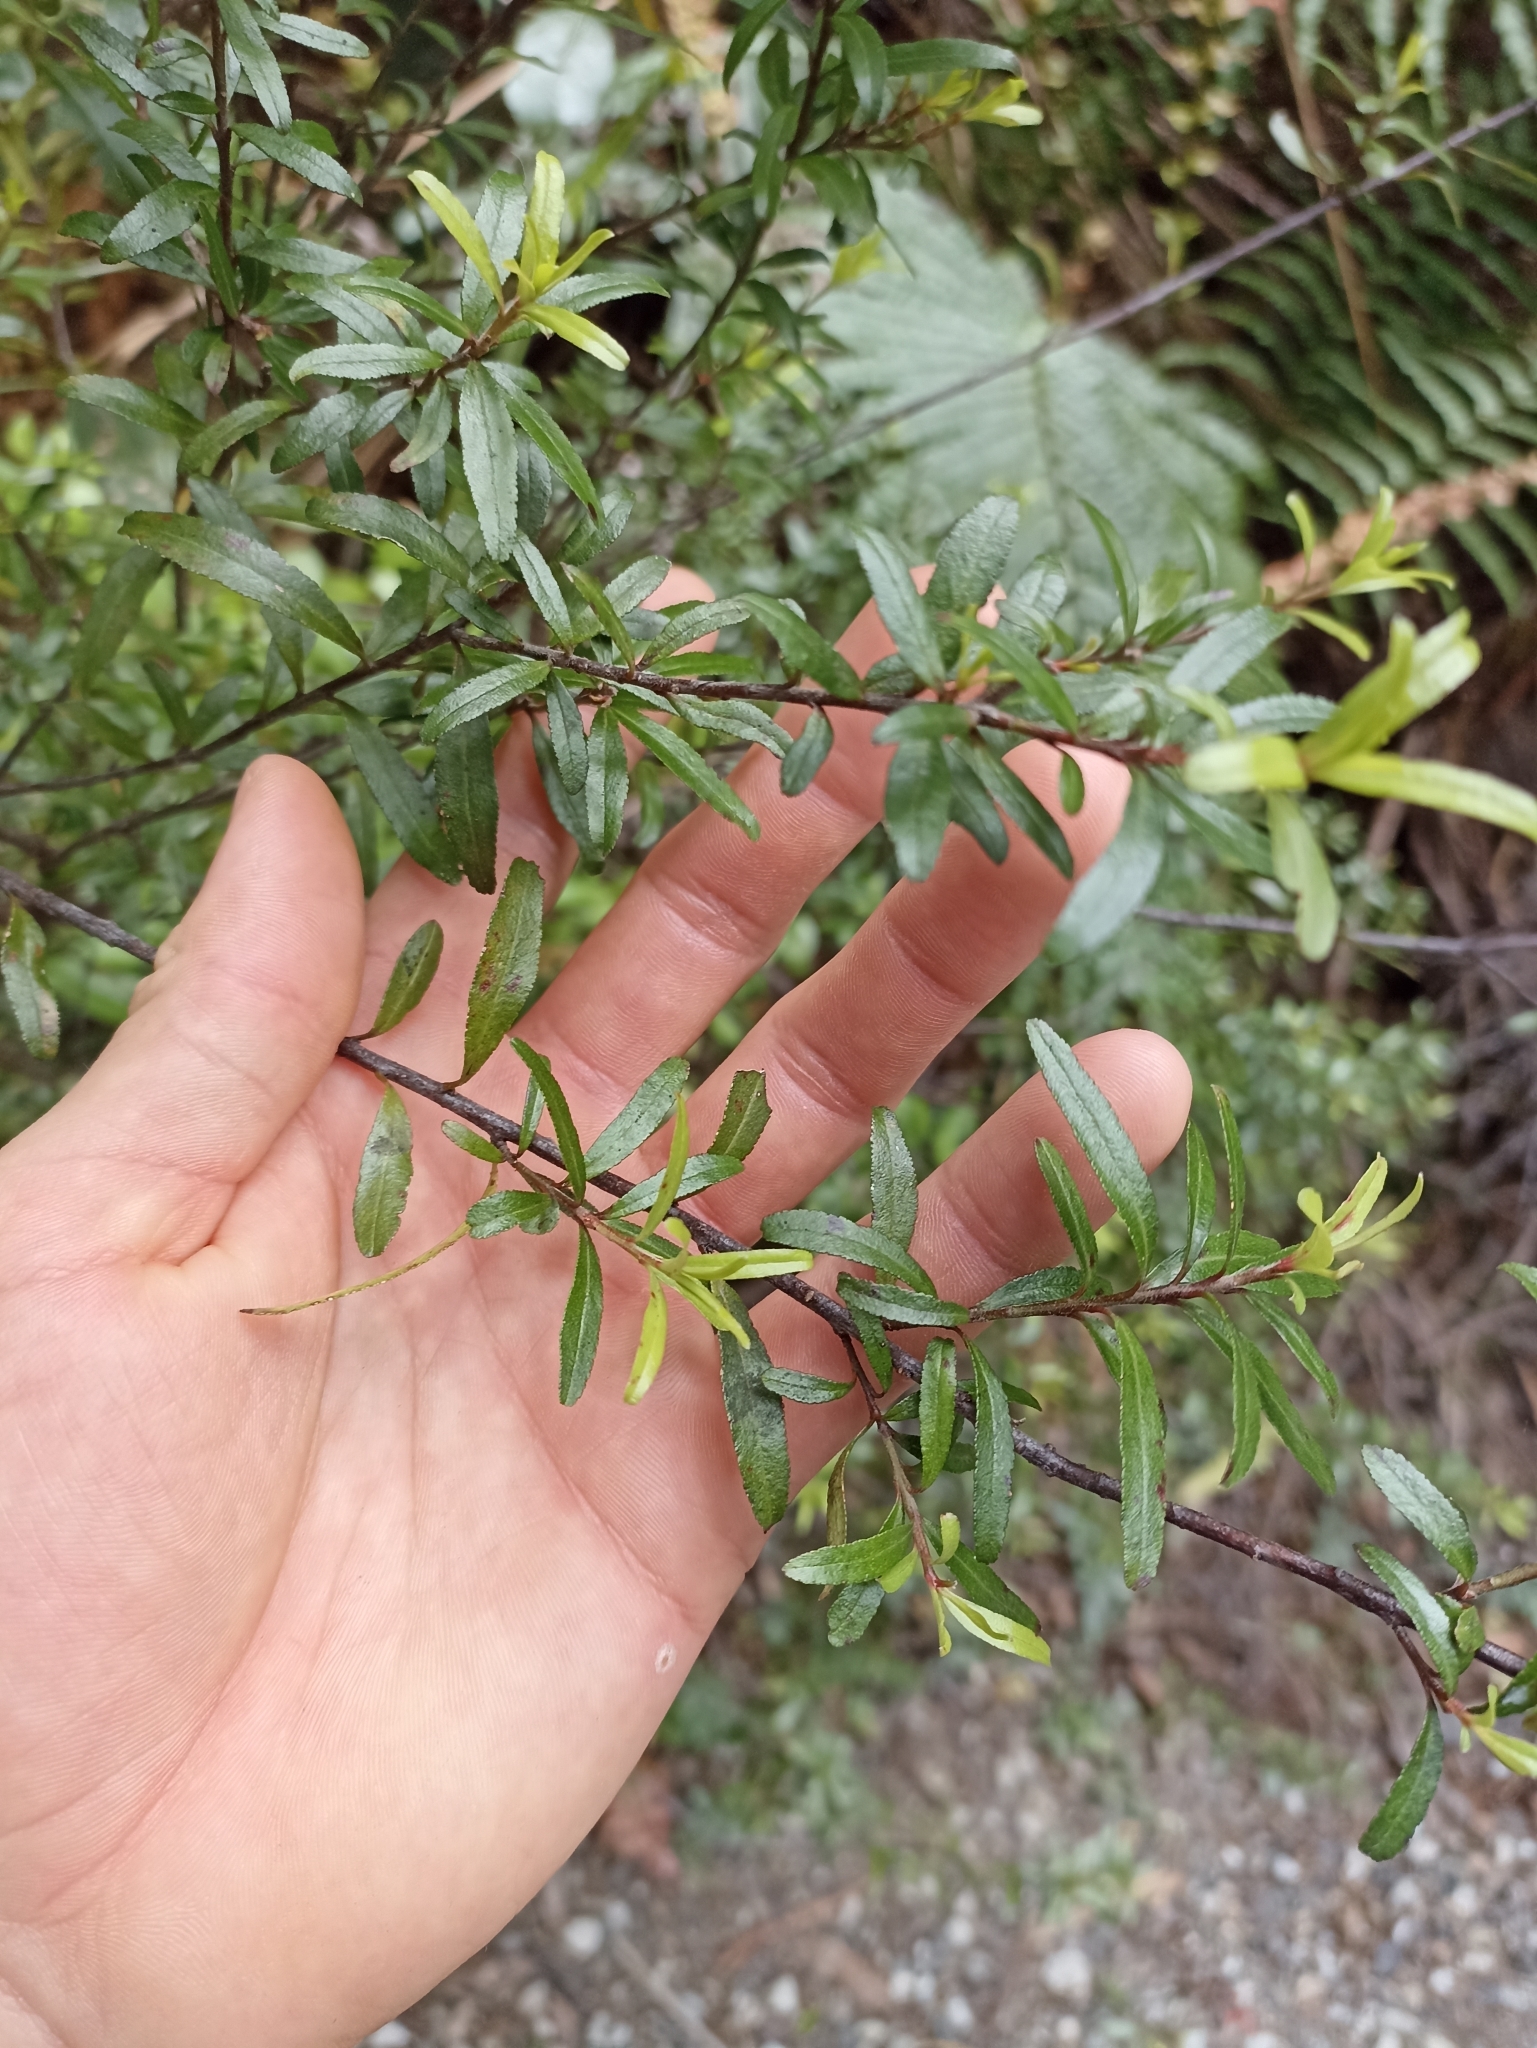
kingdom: Plantae
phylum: Tracheophyta
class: Magnoliopsida
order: Sapindales
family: Rutaceae
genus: Leionema
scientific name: Leionema nudum
